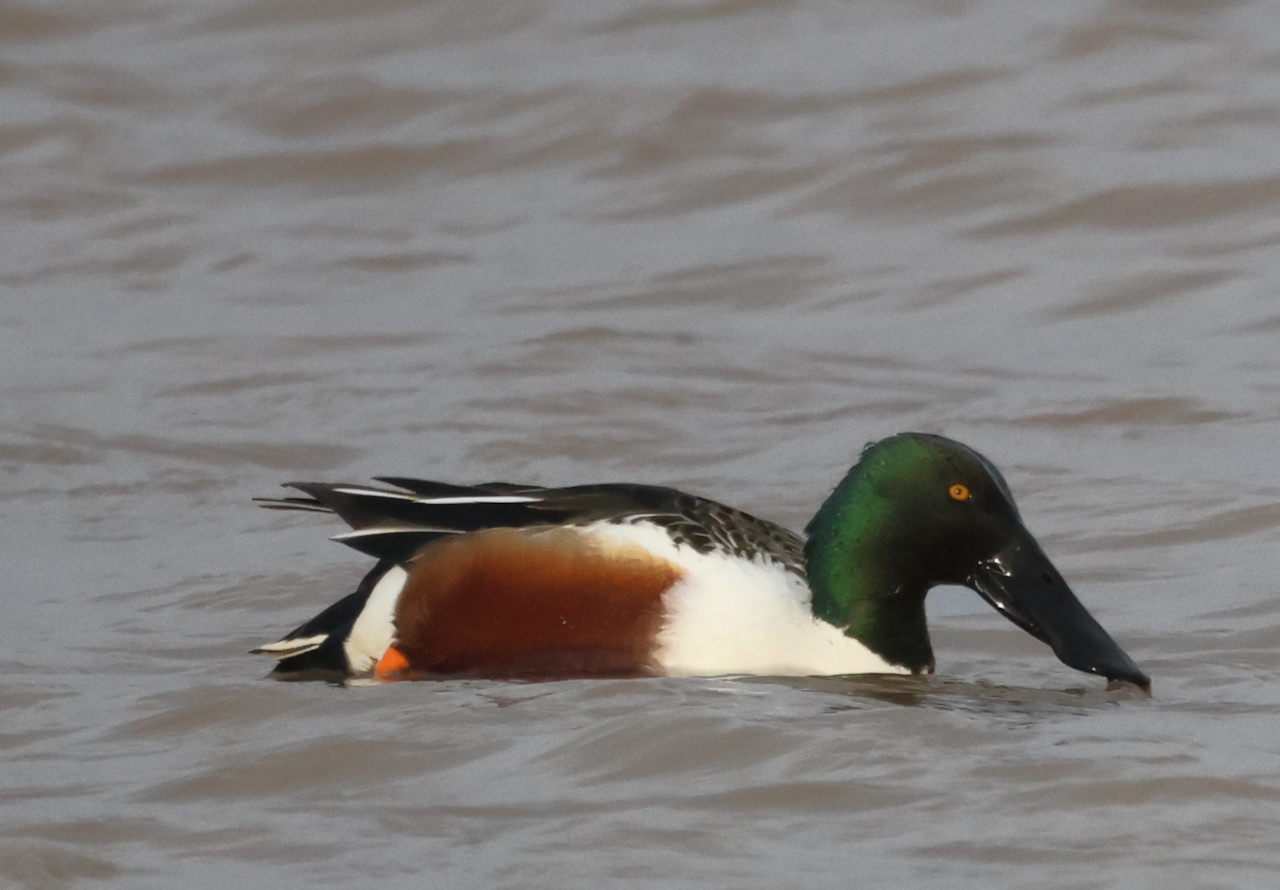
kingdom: Animalia
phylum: Chordata
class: Aves
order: Anseriformes
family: Anatidae
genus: Spatula
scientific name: Spatula clypeata
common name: Northern shoveler
